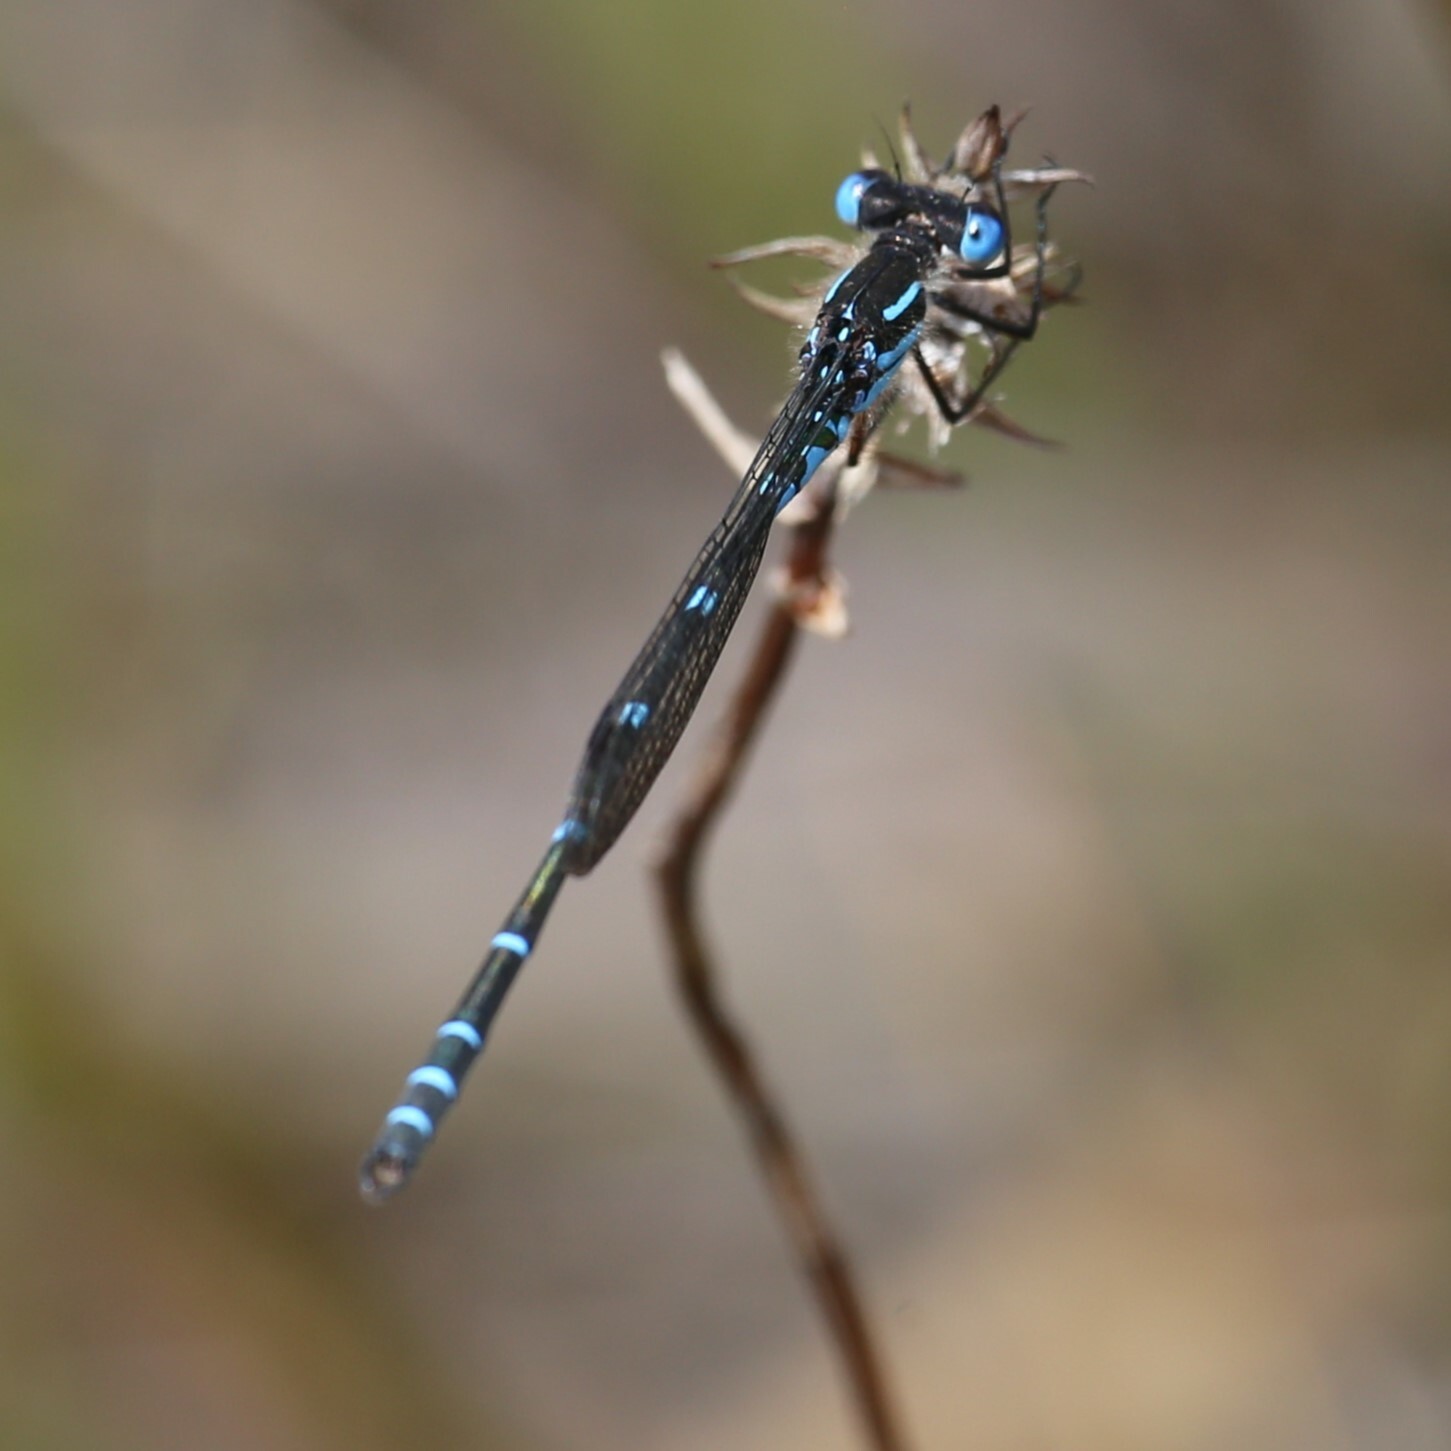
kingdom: Animalia
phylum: Arthropoda
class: Insecta
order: Odonata
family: Lestidae
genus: Austrolestes
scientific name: Austrolestes aleison
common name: Western ringtail
